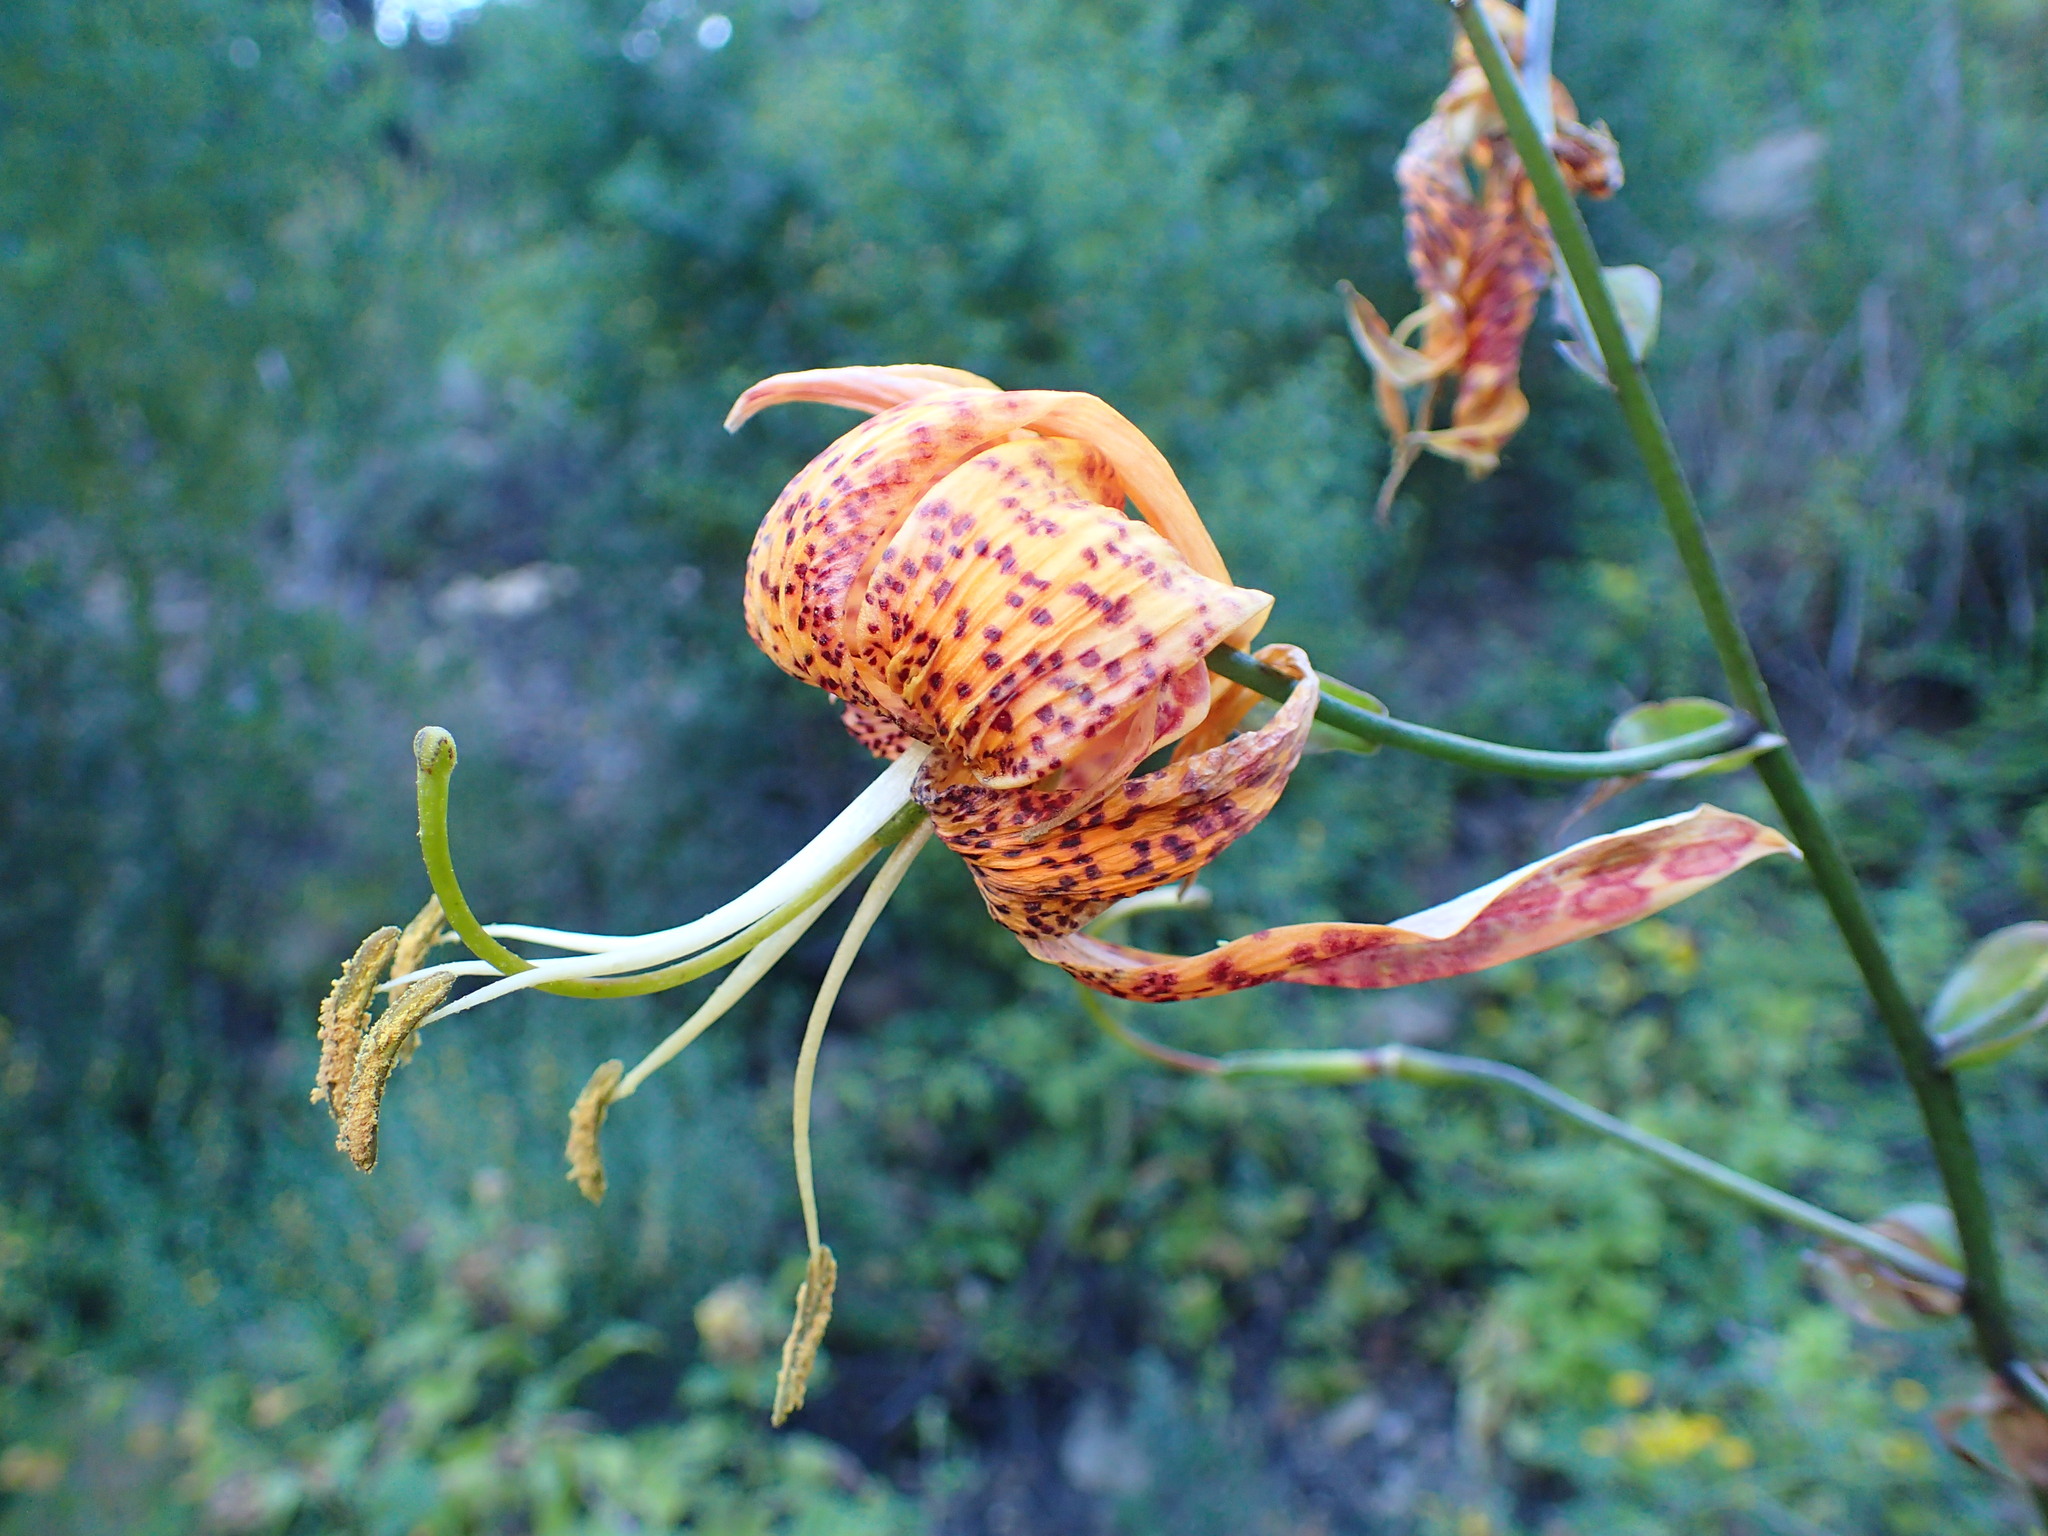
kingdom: Plantae
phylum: Tracheophyta
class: Liliopsida
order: Liliales
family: Liliaceae
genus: Lilium
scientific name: Lilium humboldtii
